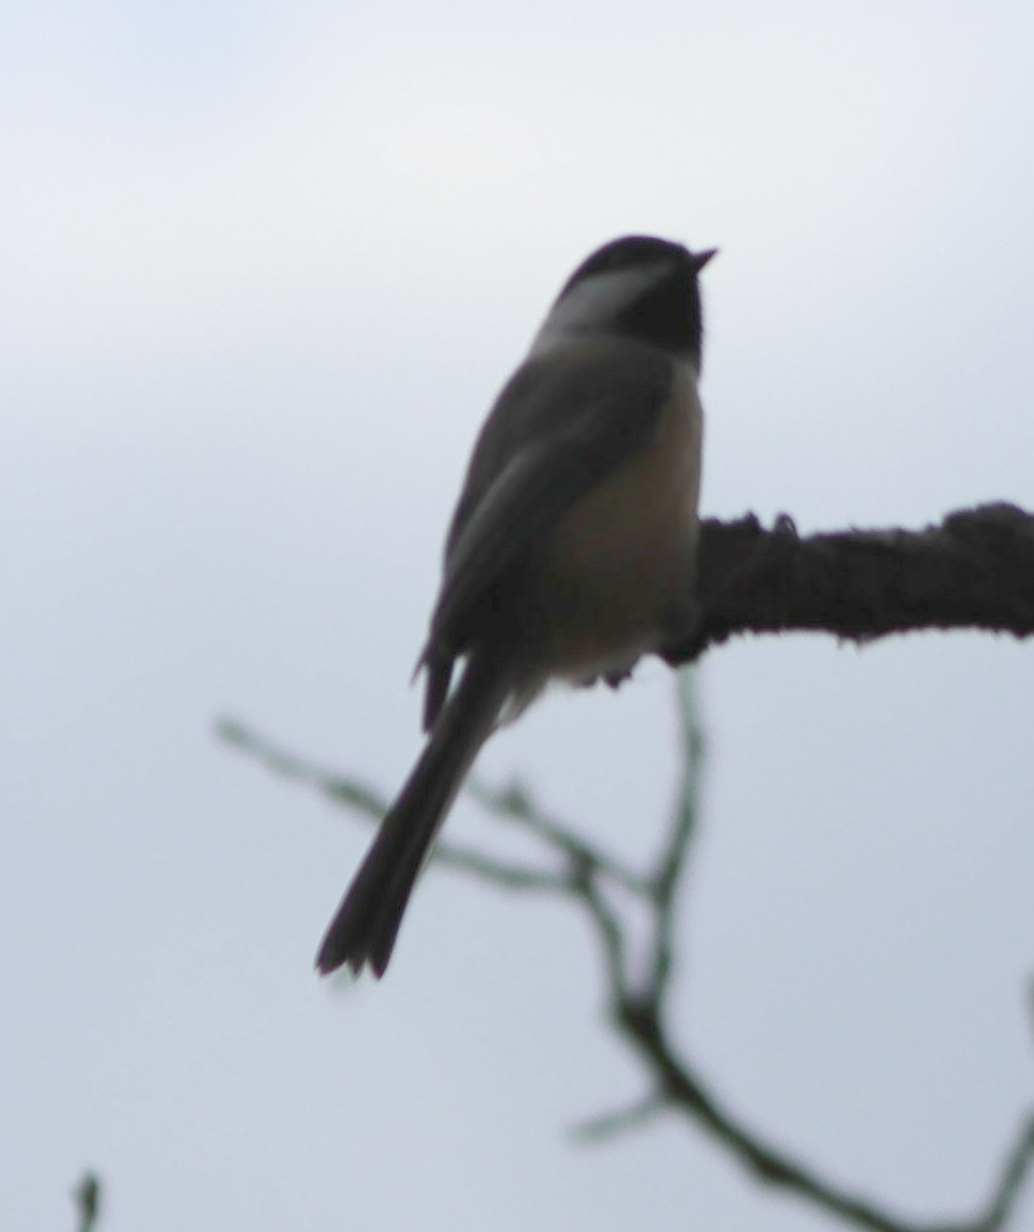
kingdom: Animalia
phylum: Chordata
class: Aves
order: Passeriformes
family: Paridae
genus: Poecile
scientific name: Poecile atricapillus
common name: Black-capped chickadee
